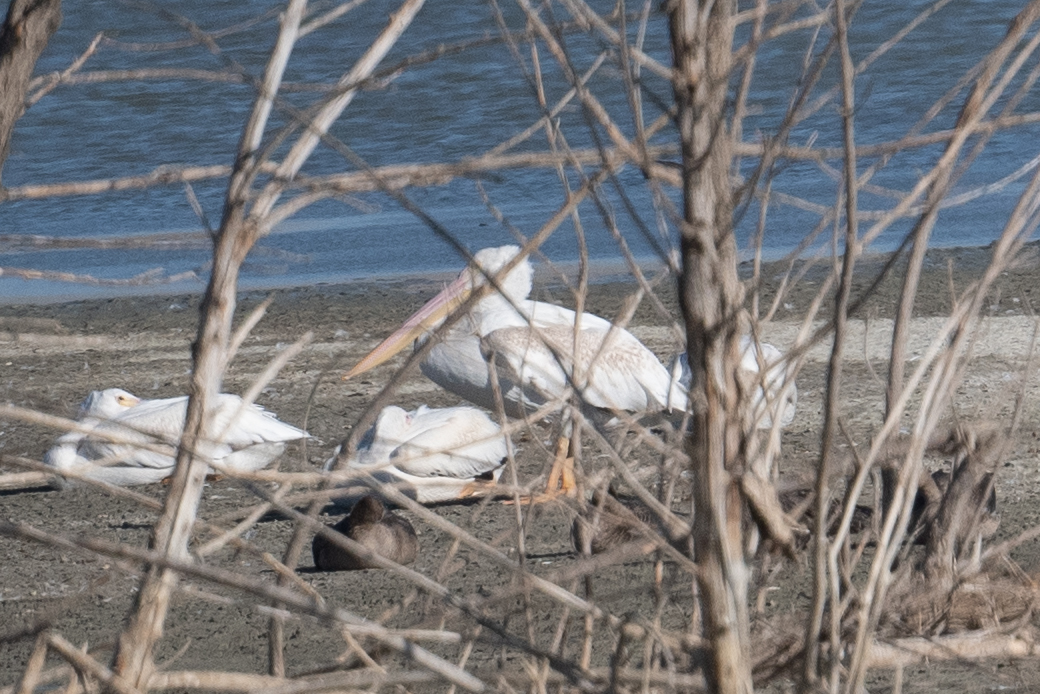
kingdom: Animalia
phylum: Chordata
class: Aves
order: Pelecaniformes
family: Pelecanidae
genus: Pelecanus
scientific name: Pelecanus erythrorhynchos
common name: American white pelican
